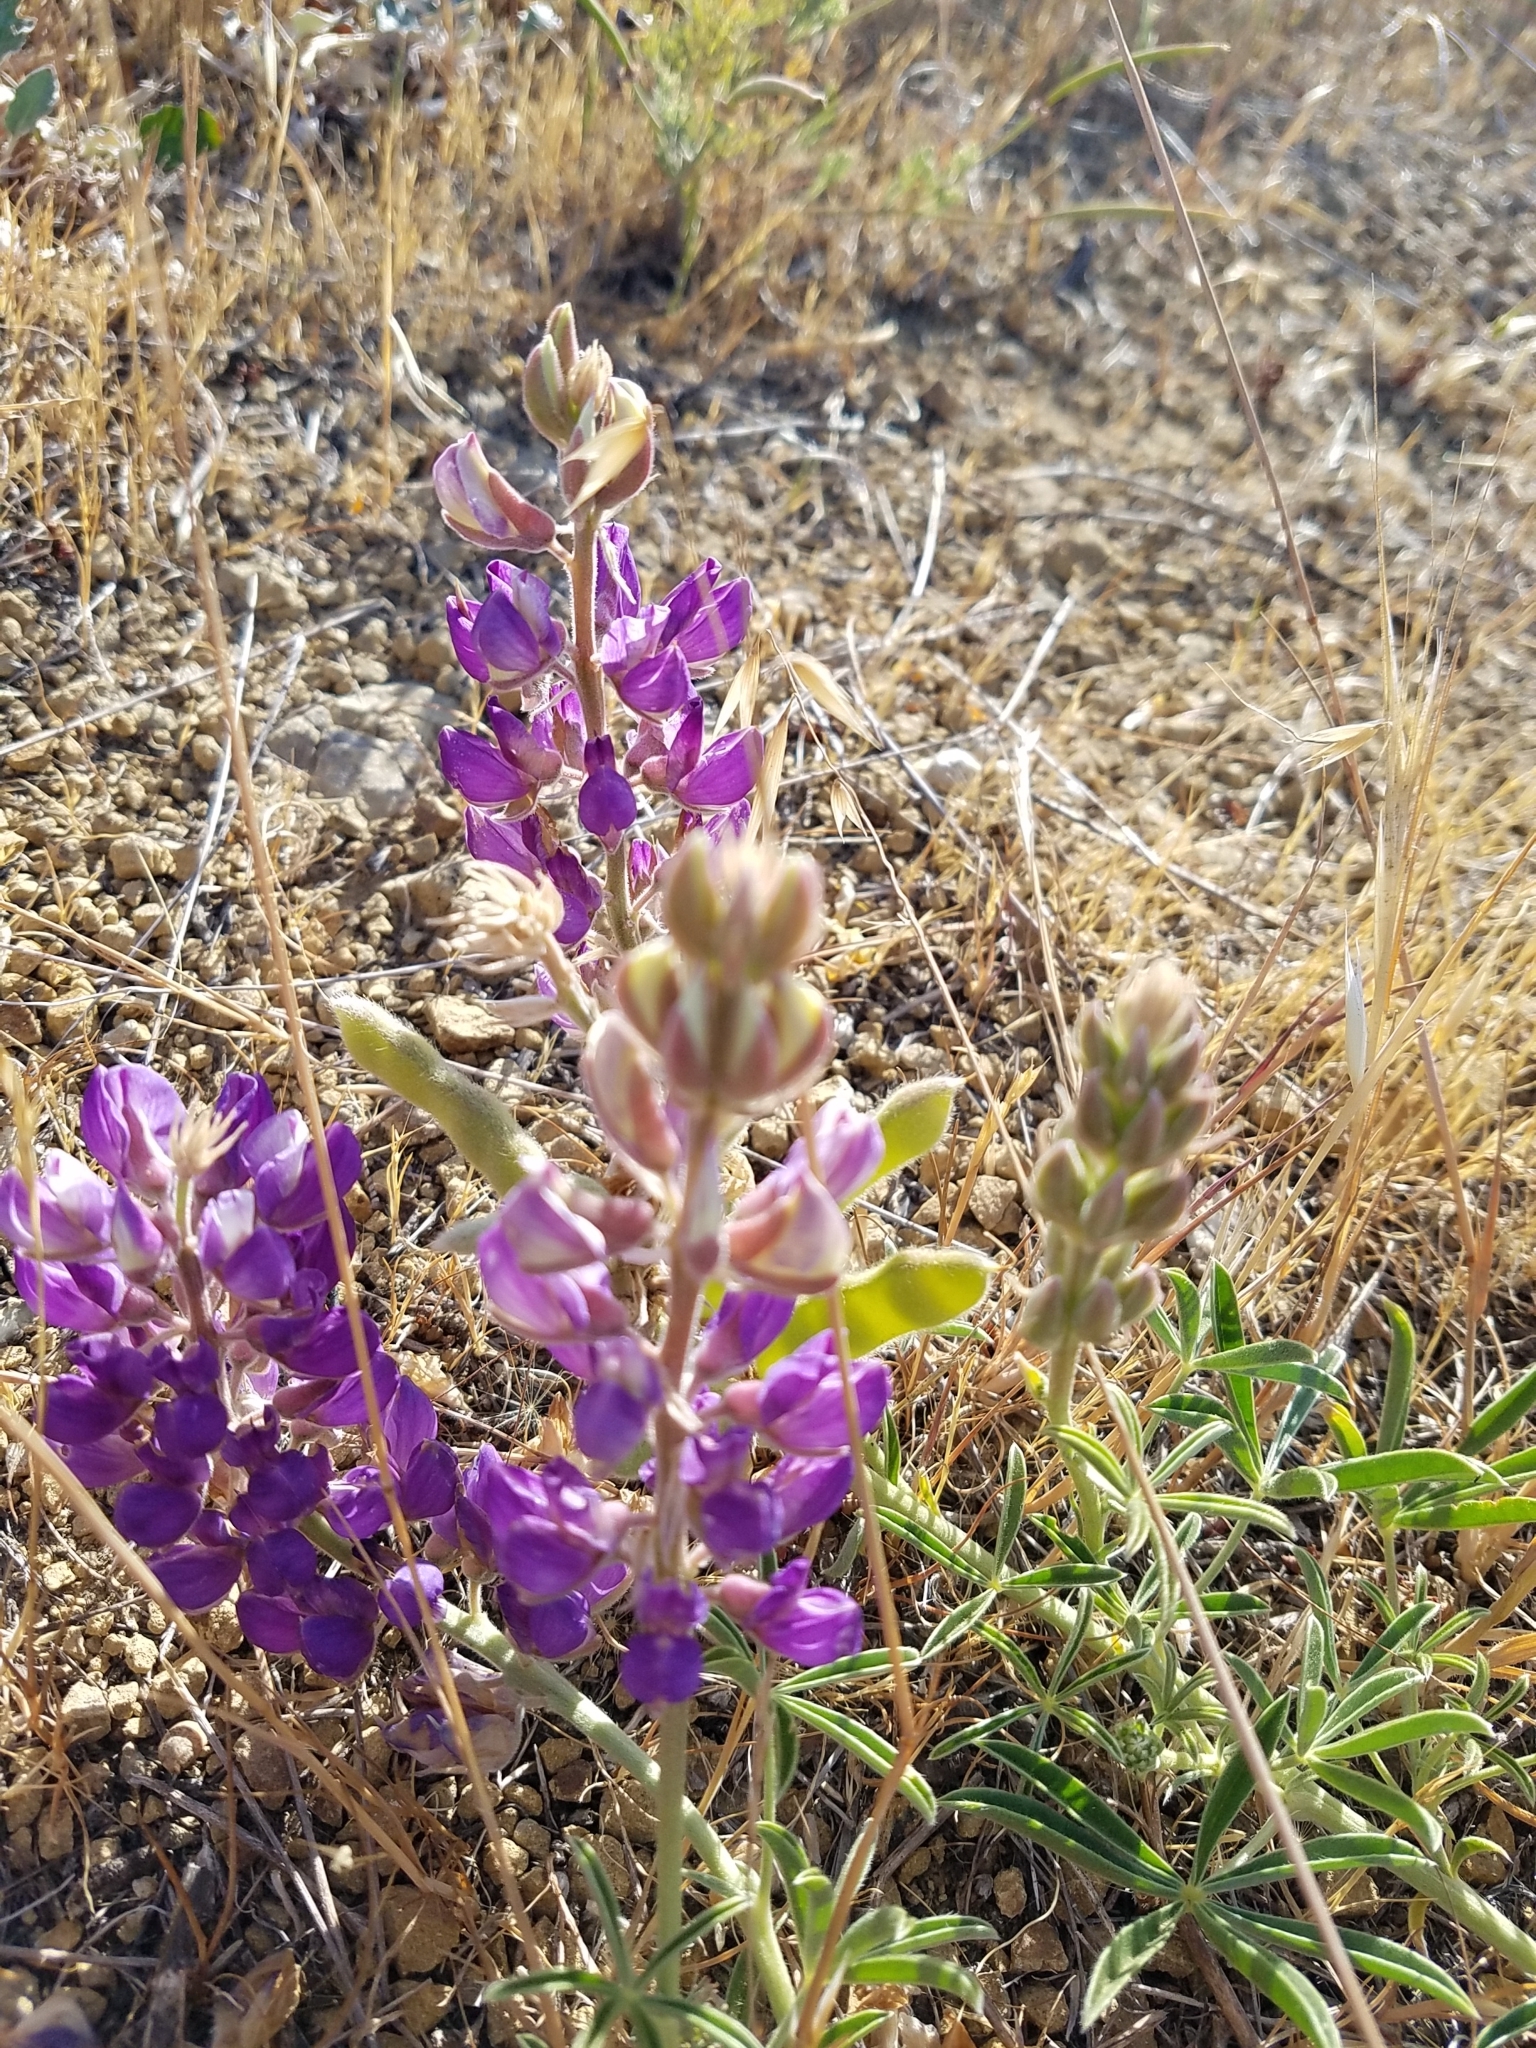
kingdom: Plantae
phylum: Tracheophyta
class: Magnoliopsida
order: Fabales
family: Fabaceae
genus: Lupinus
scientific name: Lupinus formosus
